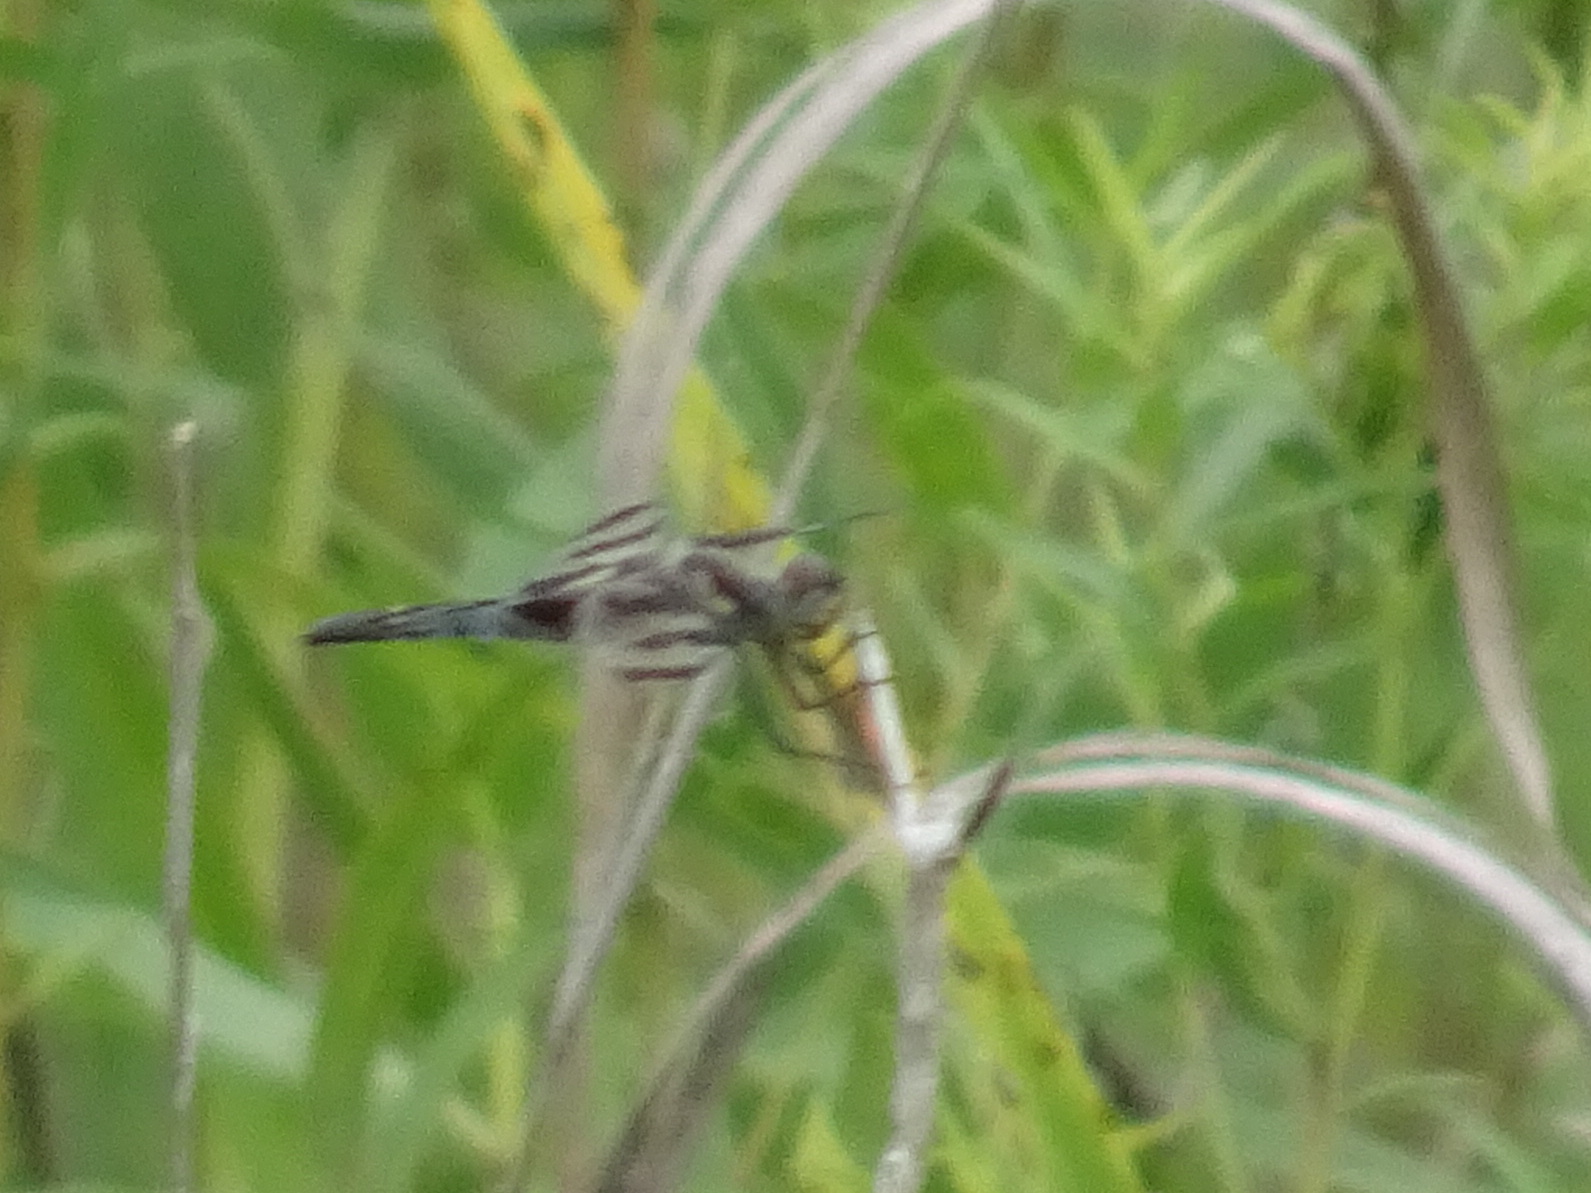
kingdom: Animalia
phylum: Arthropoda
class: Insecta
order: Odonata
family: Libellulidae
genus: Celithemis
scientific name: Celithemis fasciata
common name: Banded pennant
